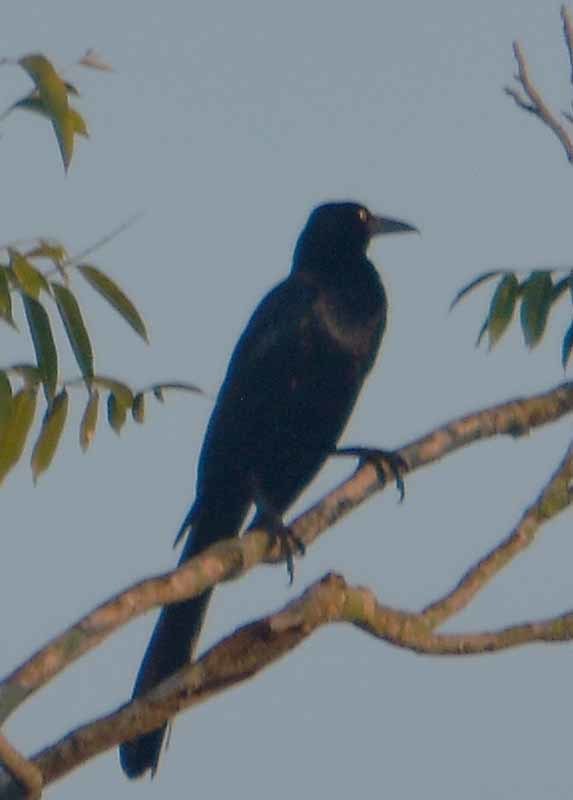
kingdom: Animalia
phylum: Chordata
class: Aves
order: Passeriformes
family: Icteridae
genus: Quiscalus
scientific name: Quiscalus mexicanus
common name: Great-tailed grackle
